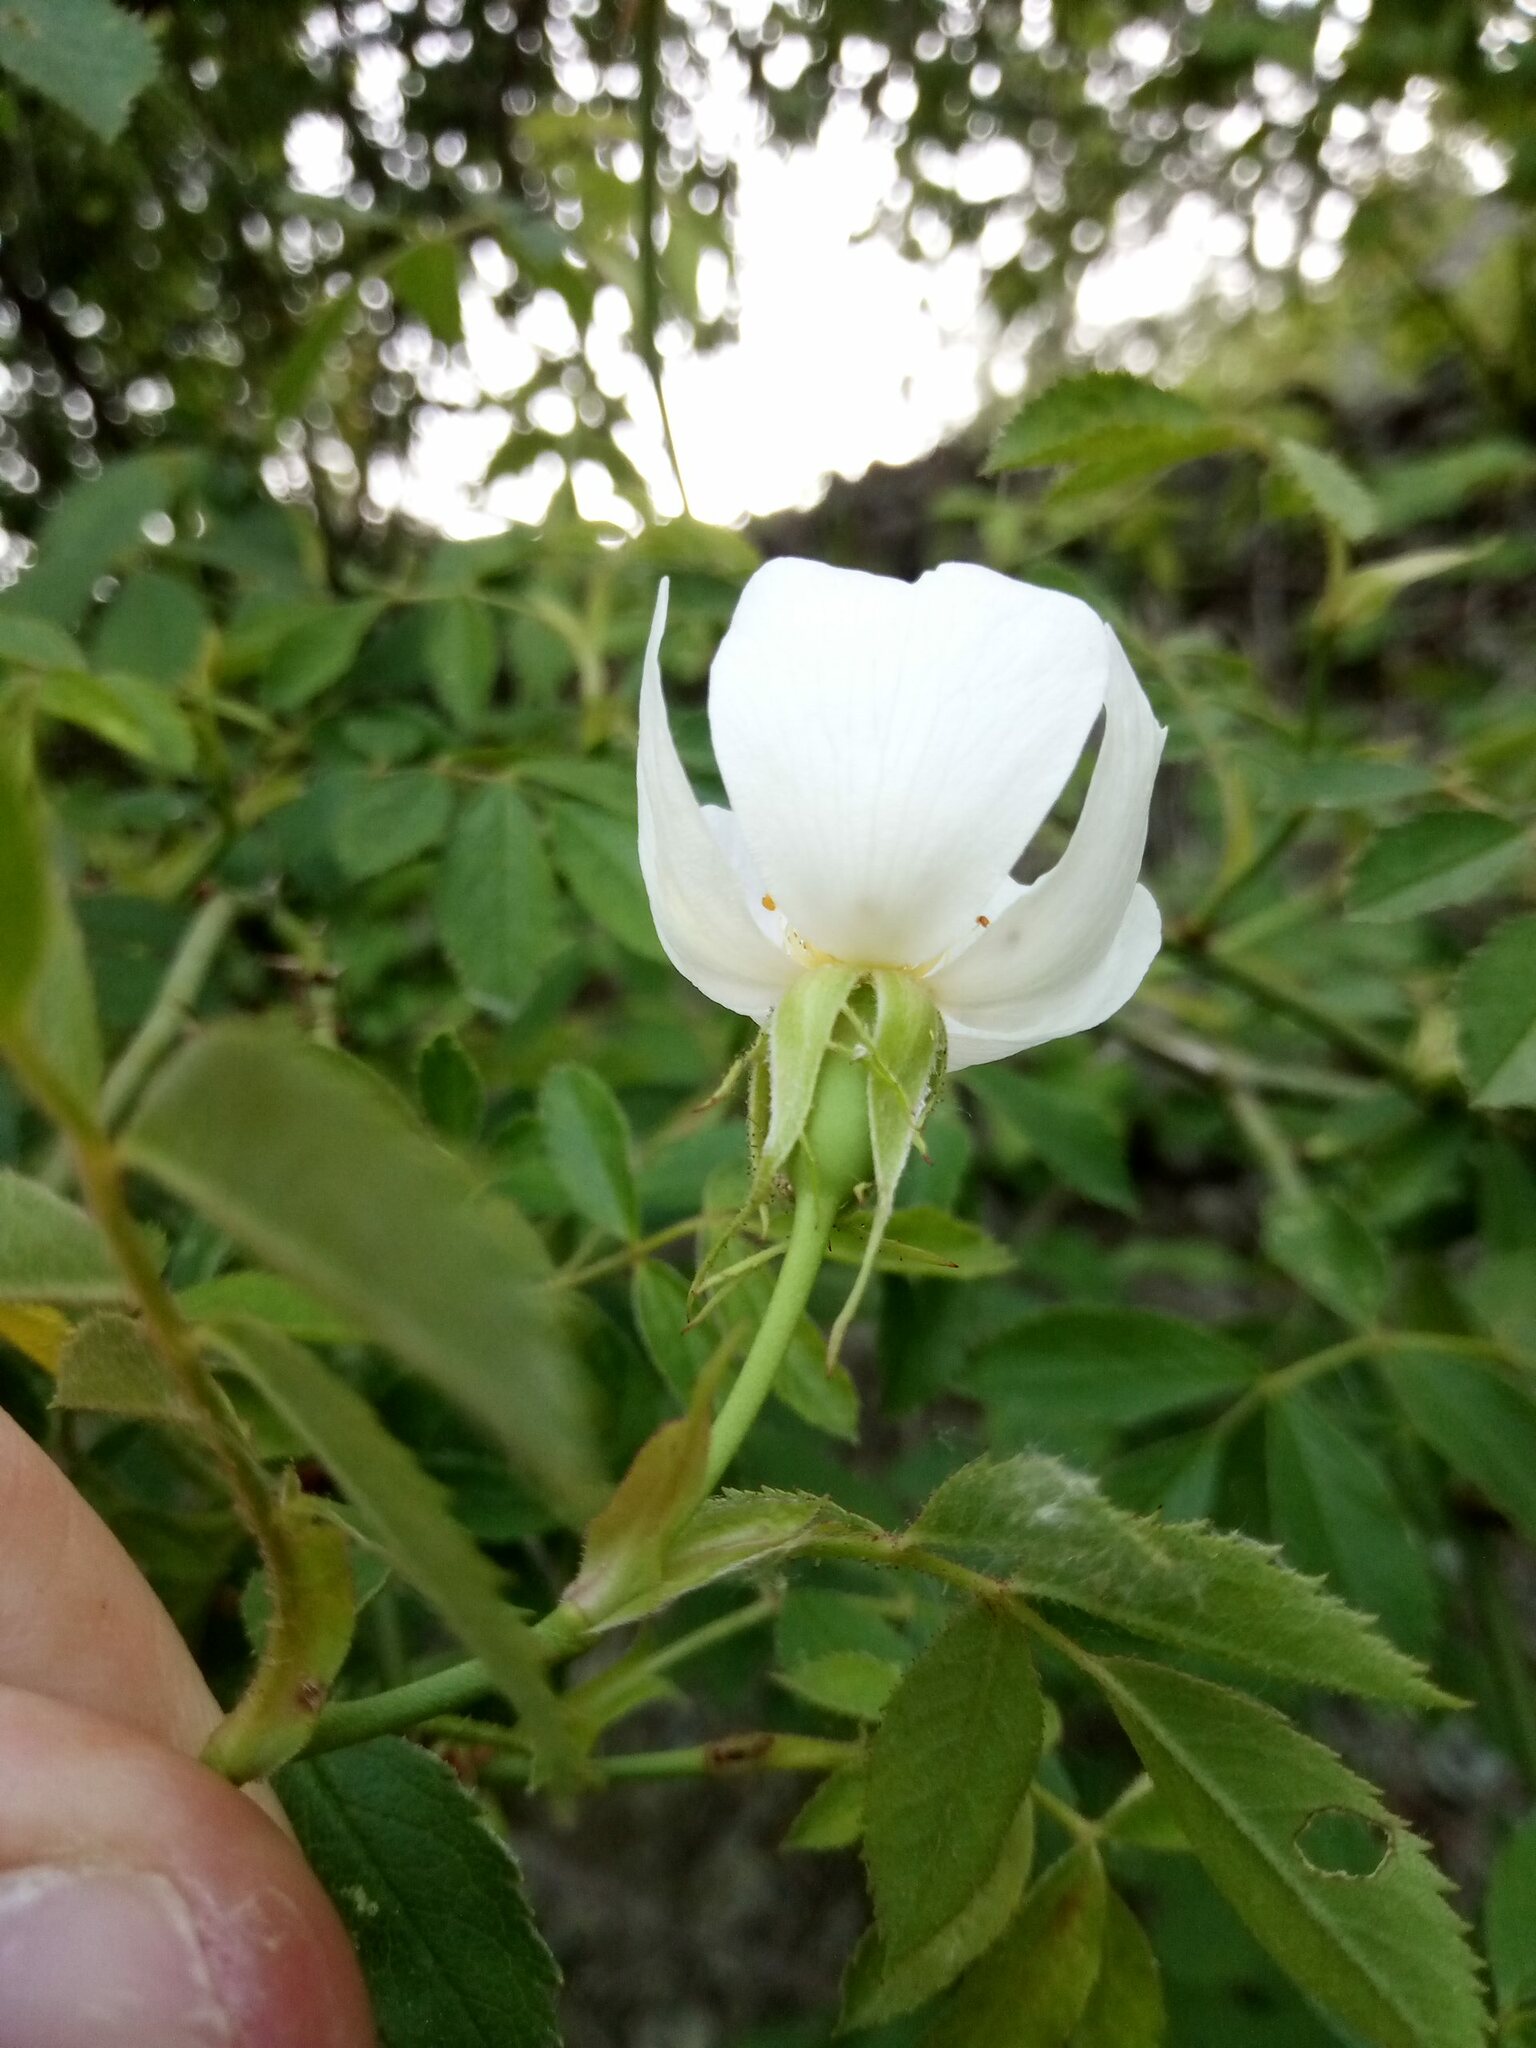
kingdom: Plantae
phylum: Tracheophyta
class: Magnoliopsida
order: Rosales
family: Rosaceae
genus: Rosa
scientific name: Rosa inodora
